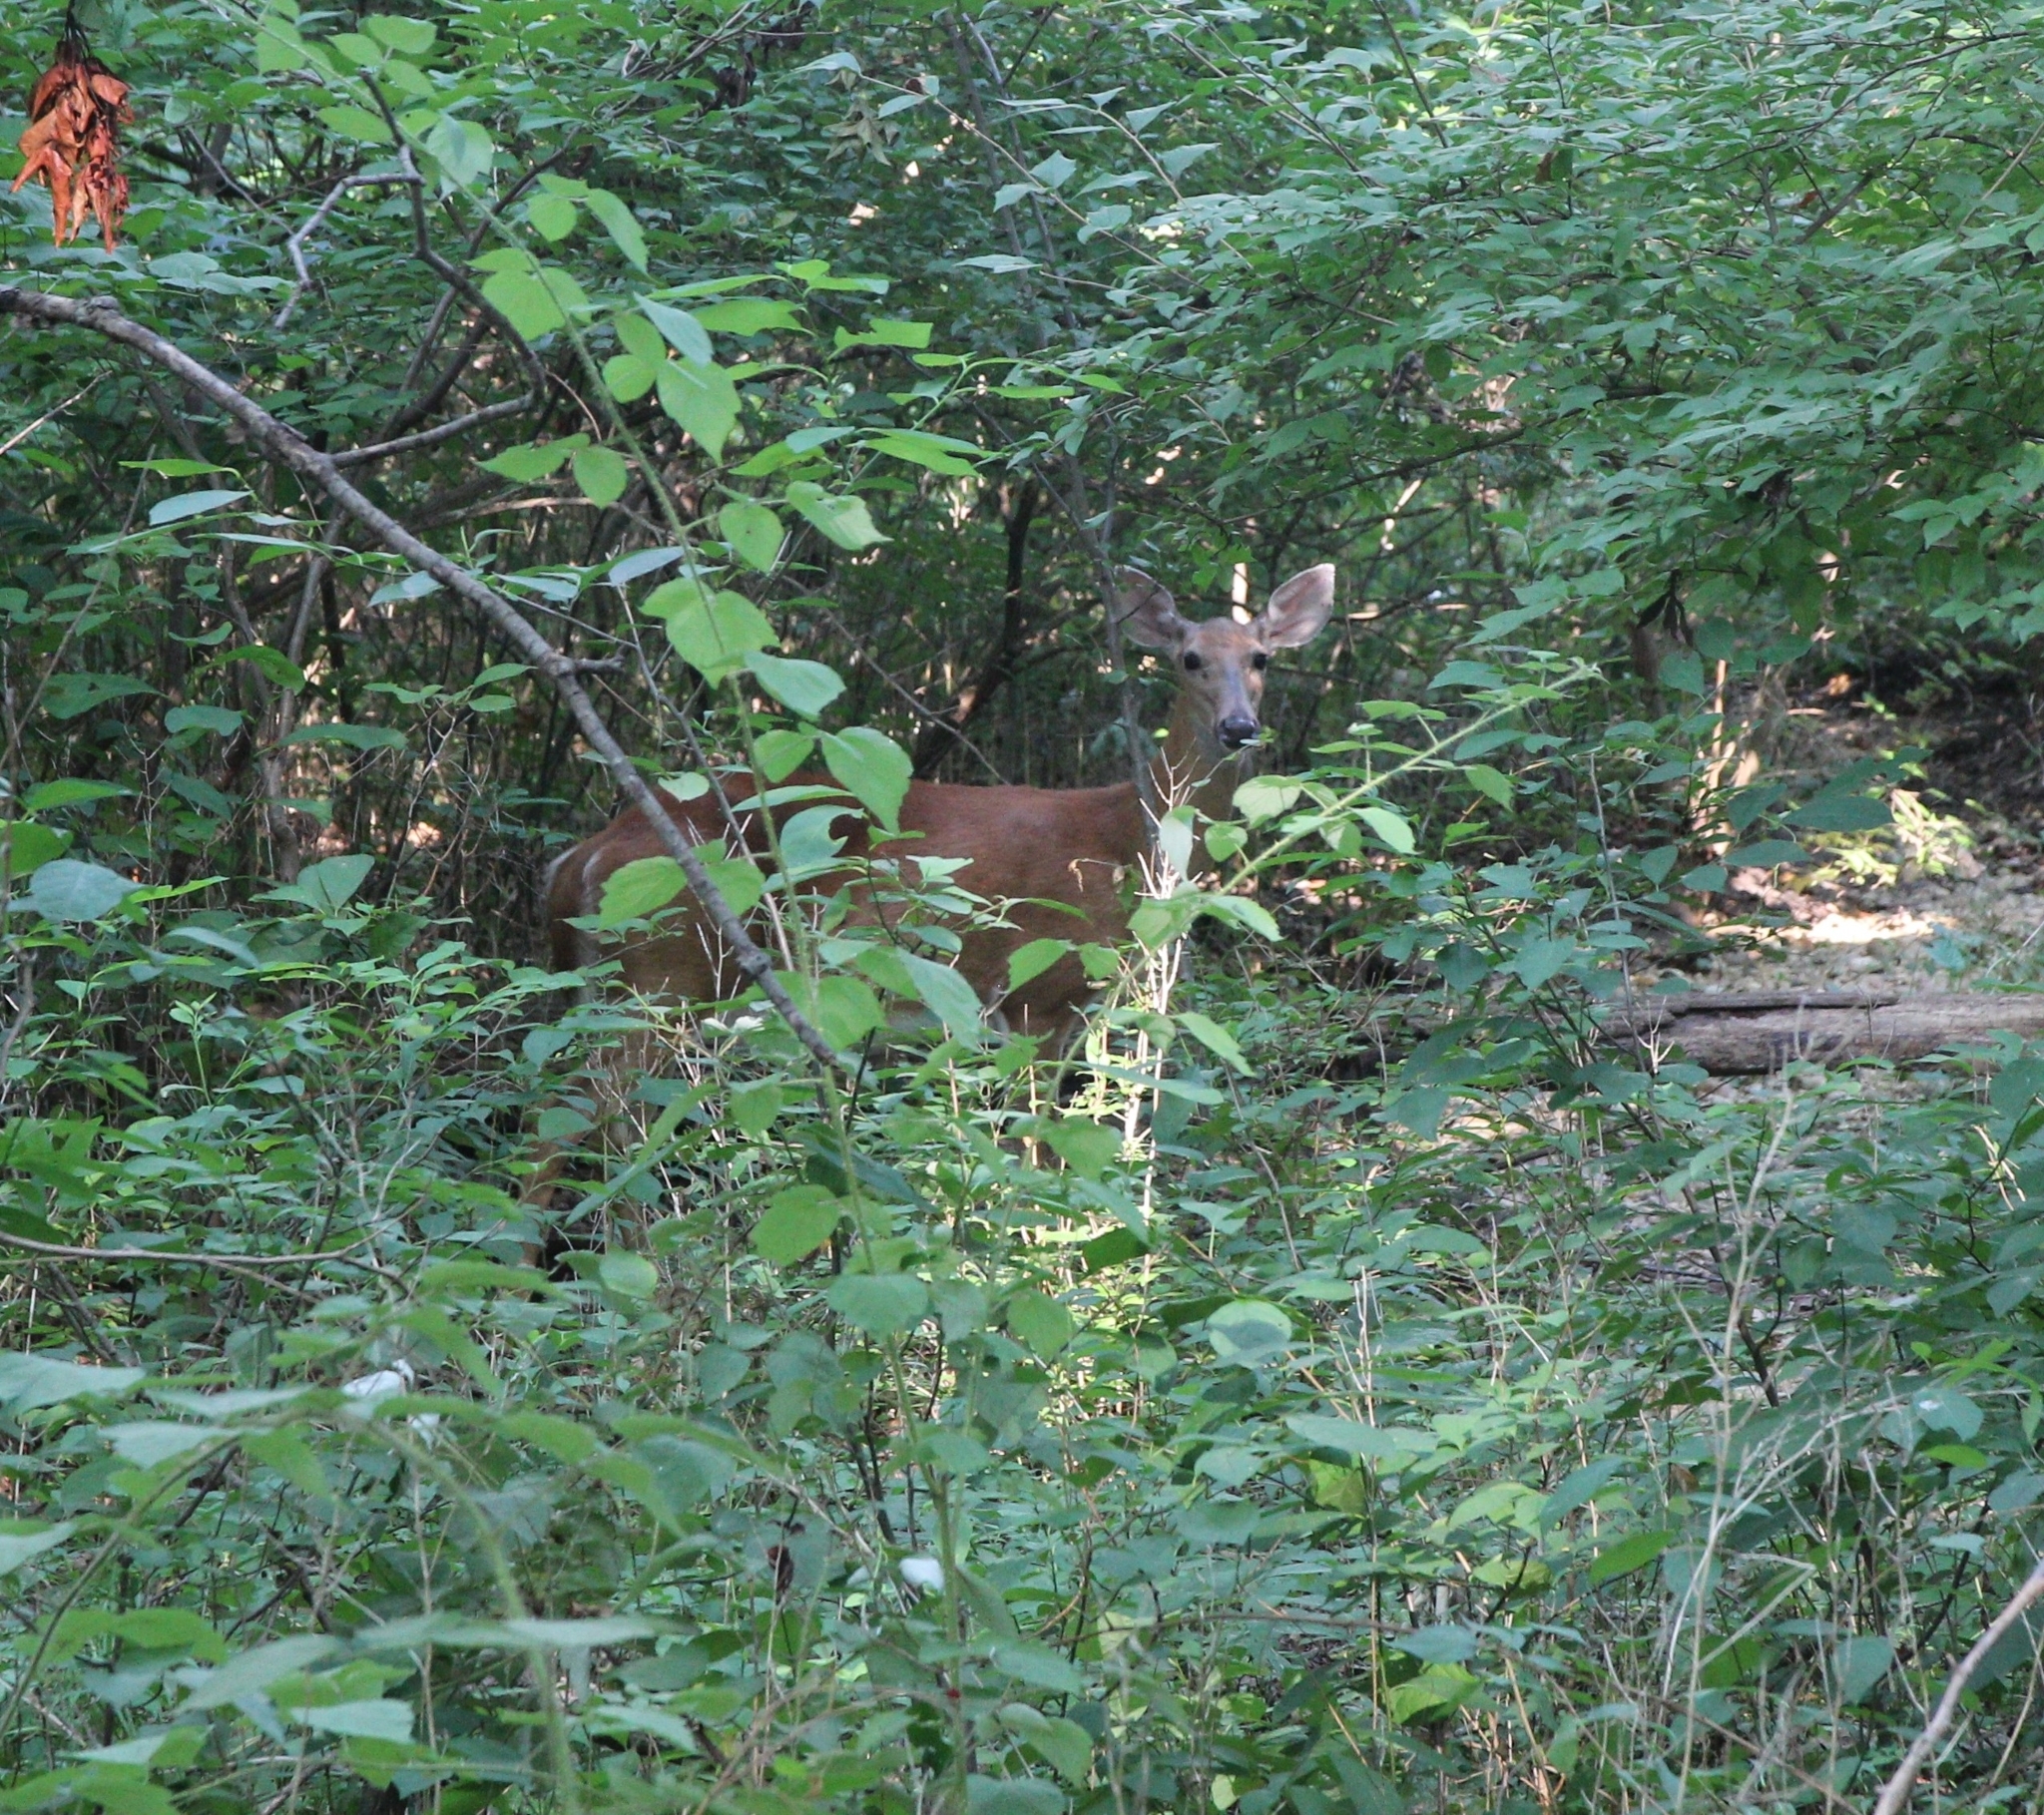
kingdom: Animalia
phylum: Chordata
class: Mammalia
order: Artiodactyla
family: Cervidae
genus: Odocoileus
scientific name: Odocoileus virginianus
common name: White-tailed deer
